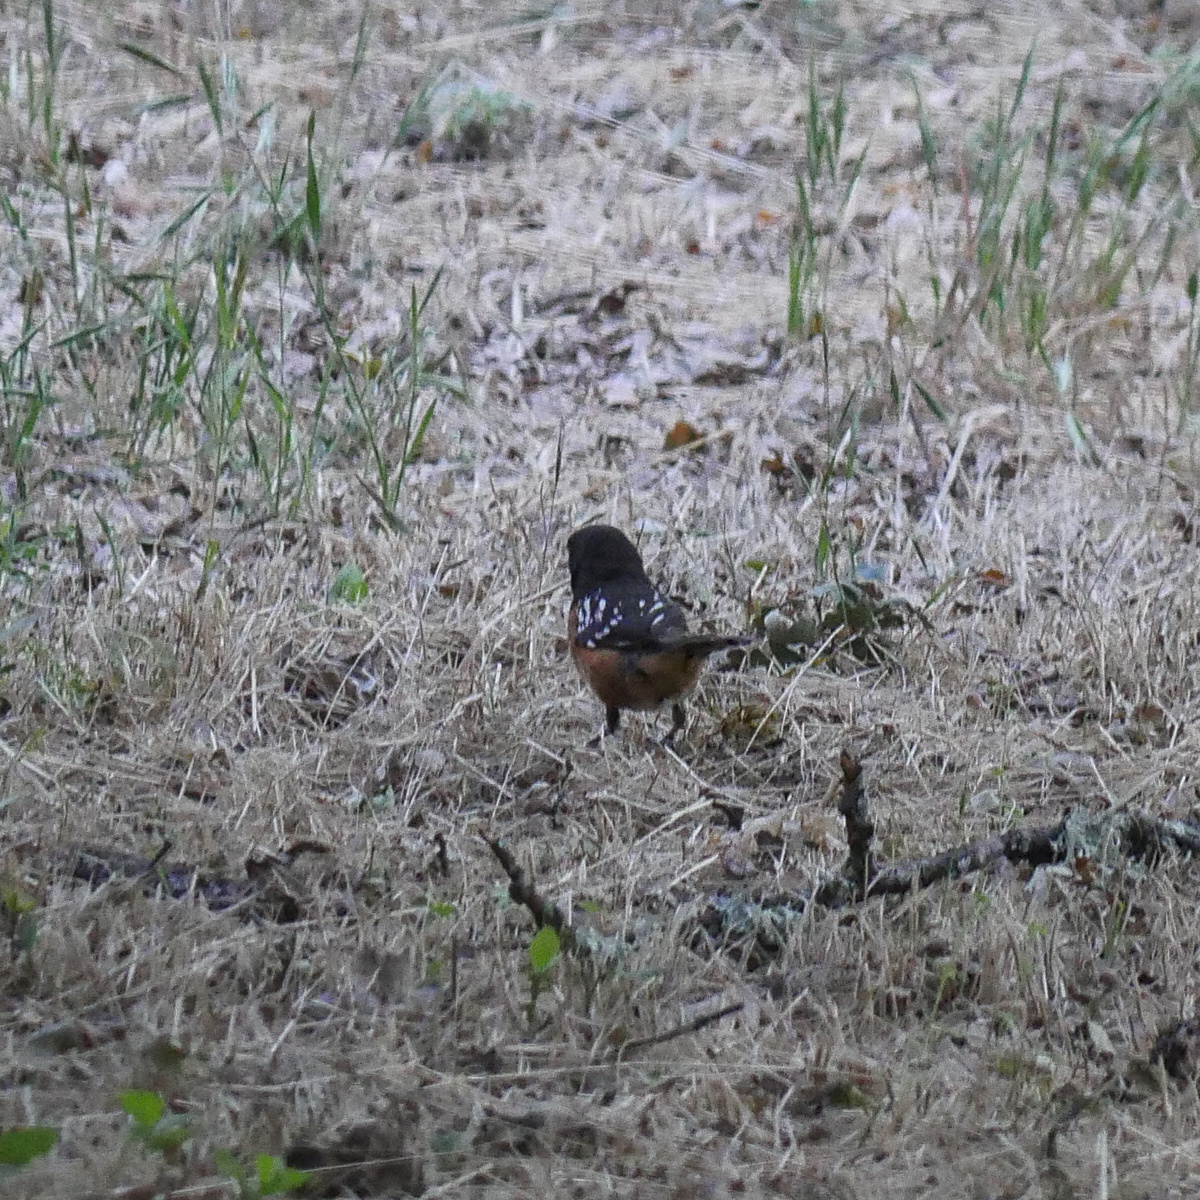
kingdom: Animalia
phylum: Chordata
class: Aves
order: Passeriformes
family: Passerellidae
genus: Pipilo
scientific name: Pipilo maculatus
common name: Spotted towhee
